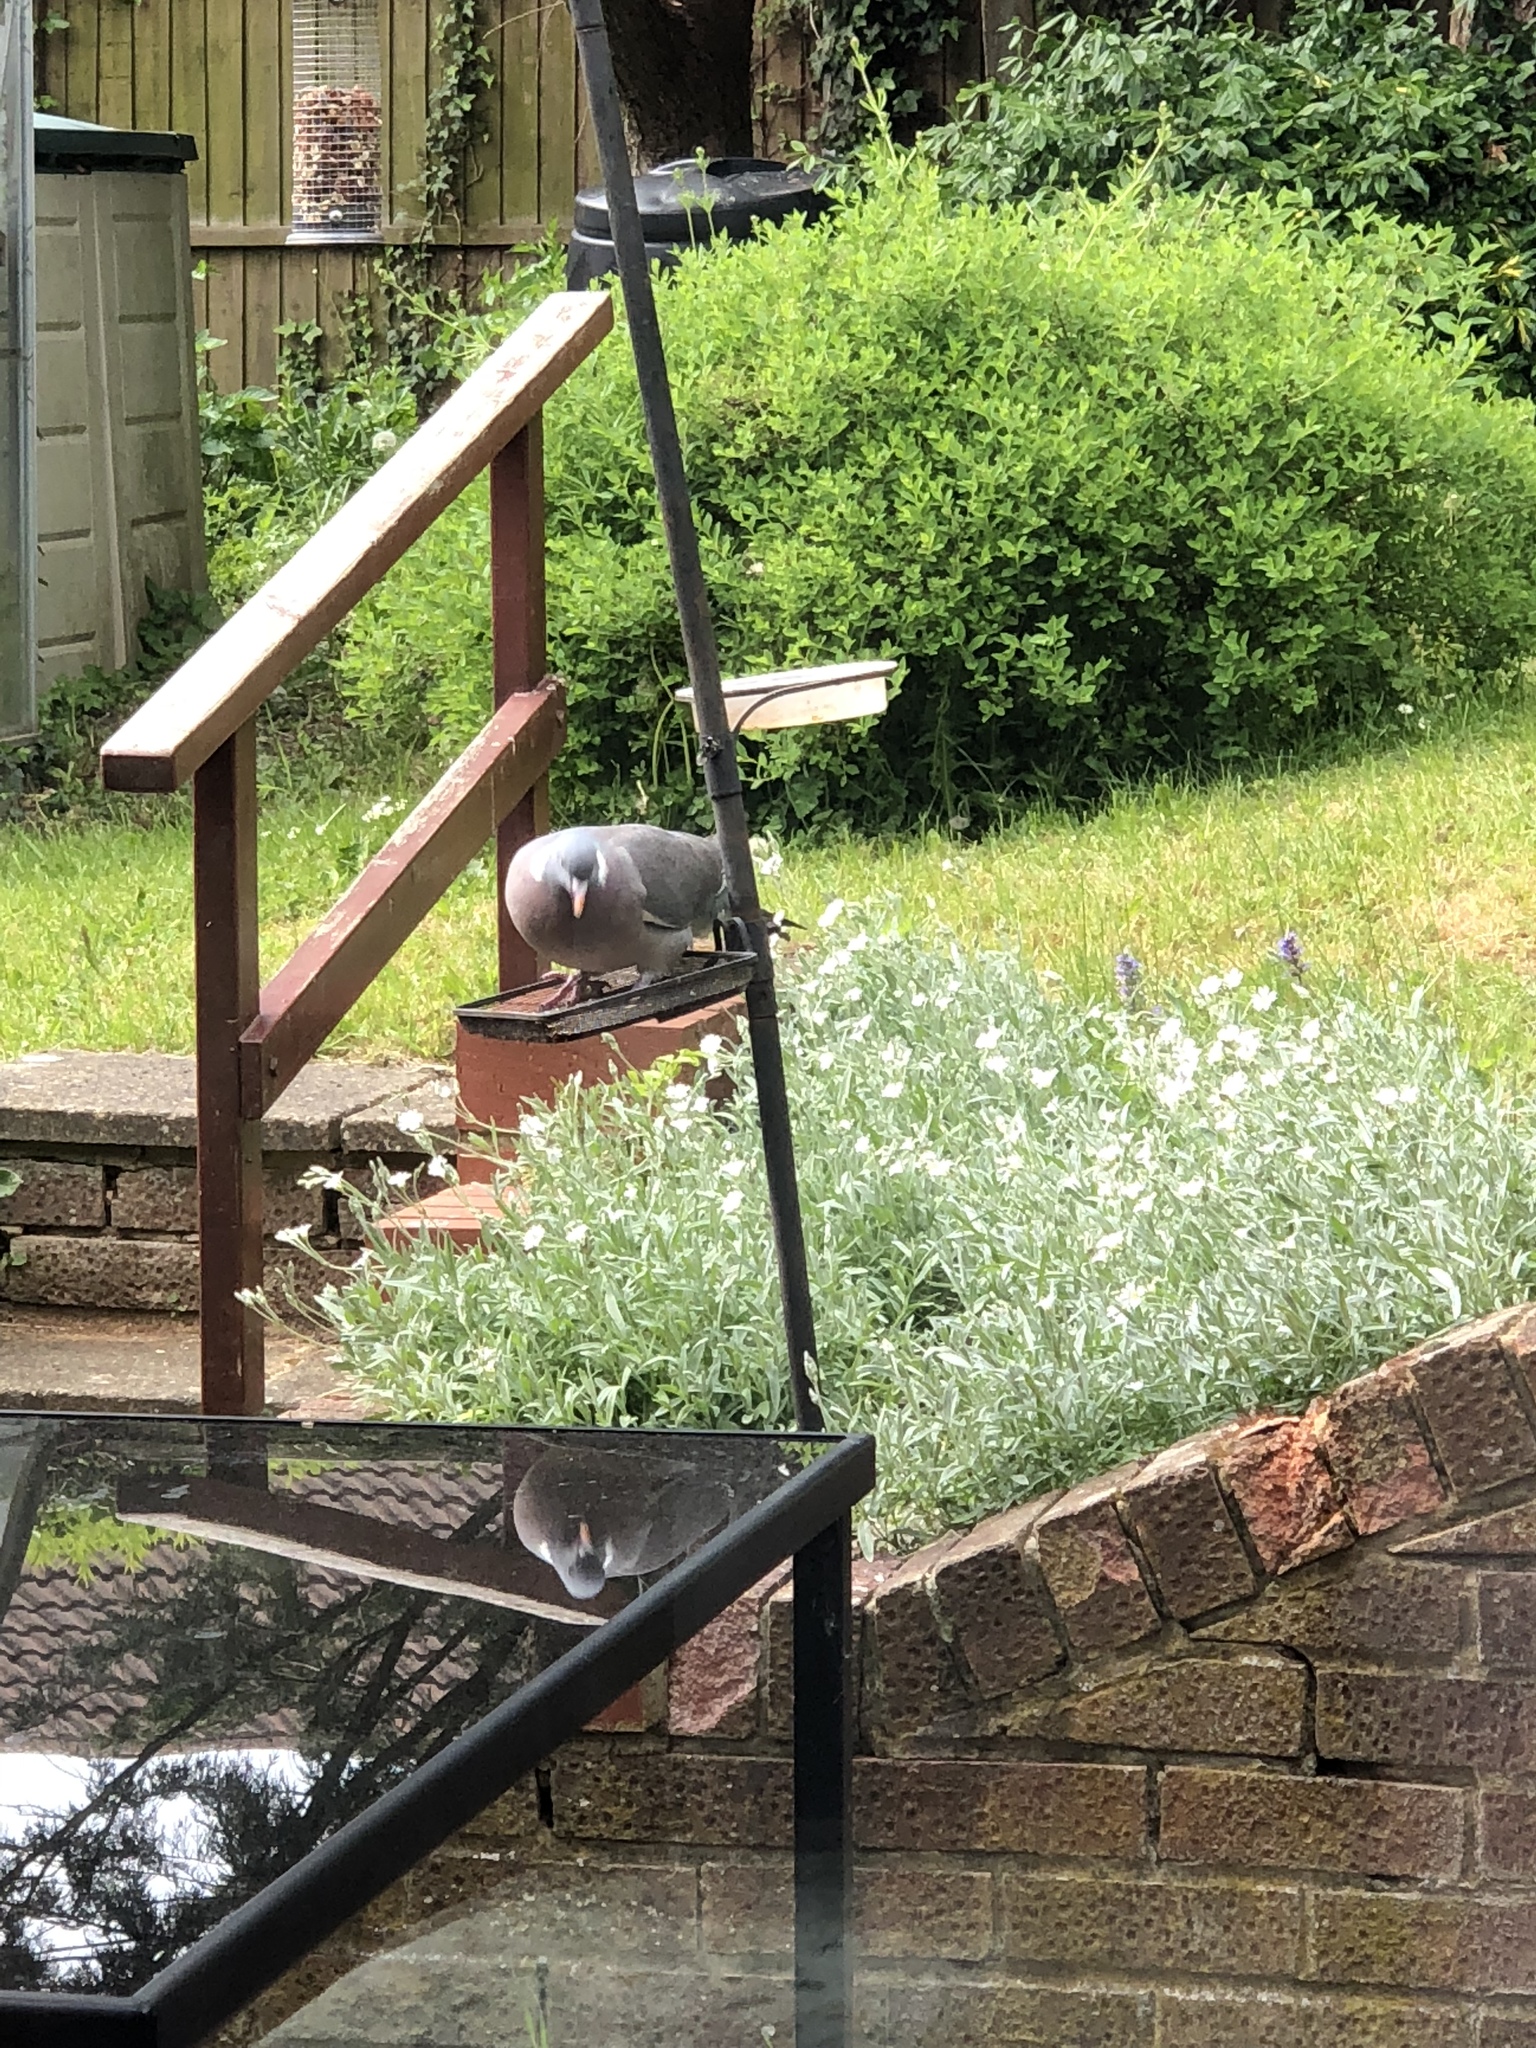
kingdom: Animalia
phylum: Chordata
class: Aves
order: Columbiformes
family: Columbidae
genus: Columba
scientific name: Columba palumbus
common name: Common wood pigeon
